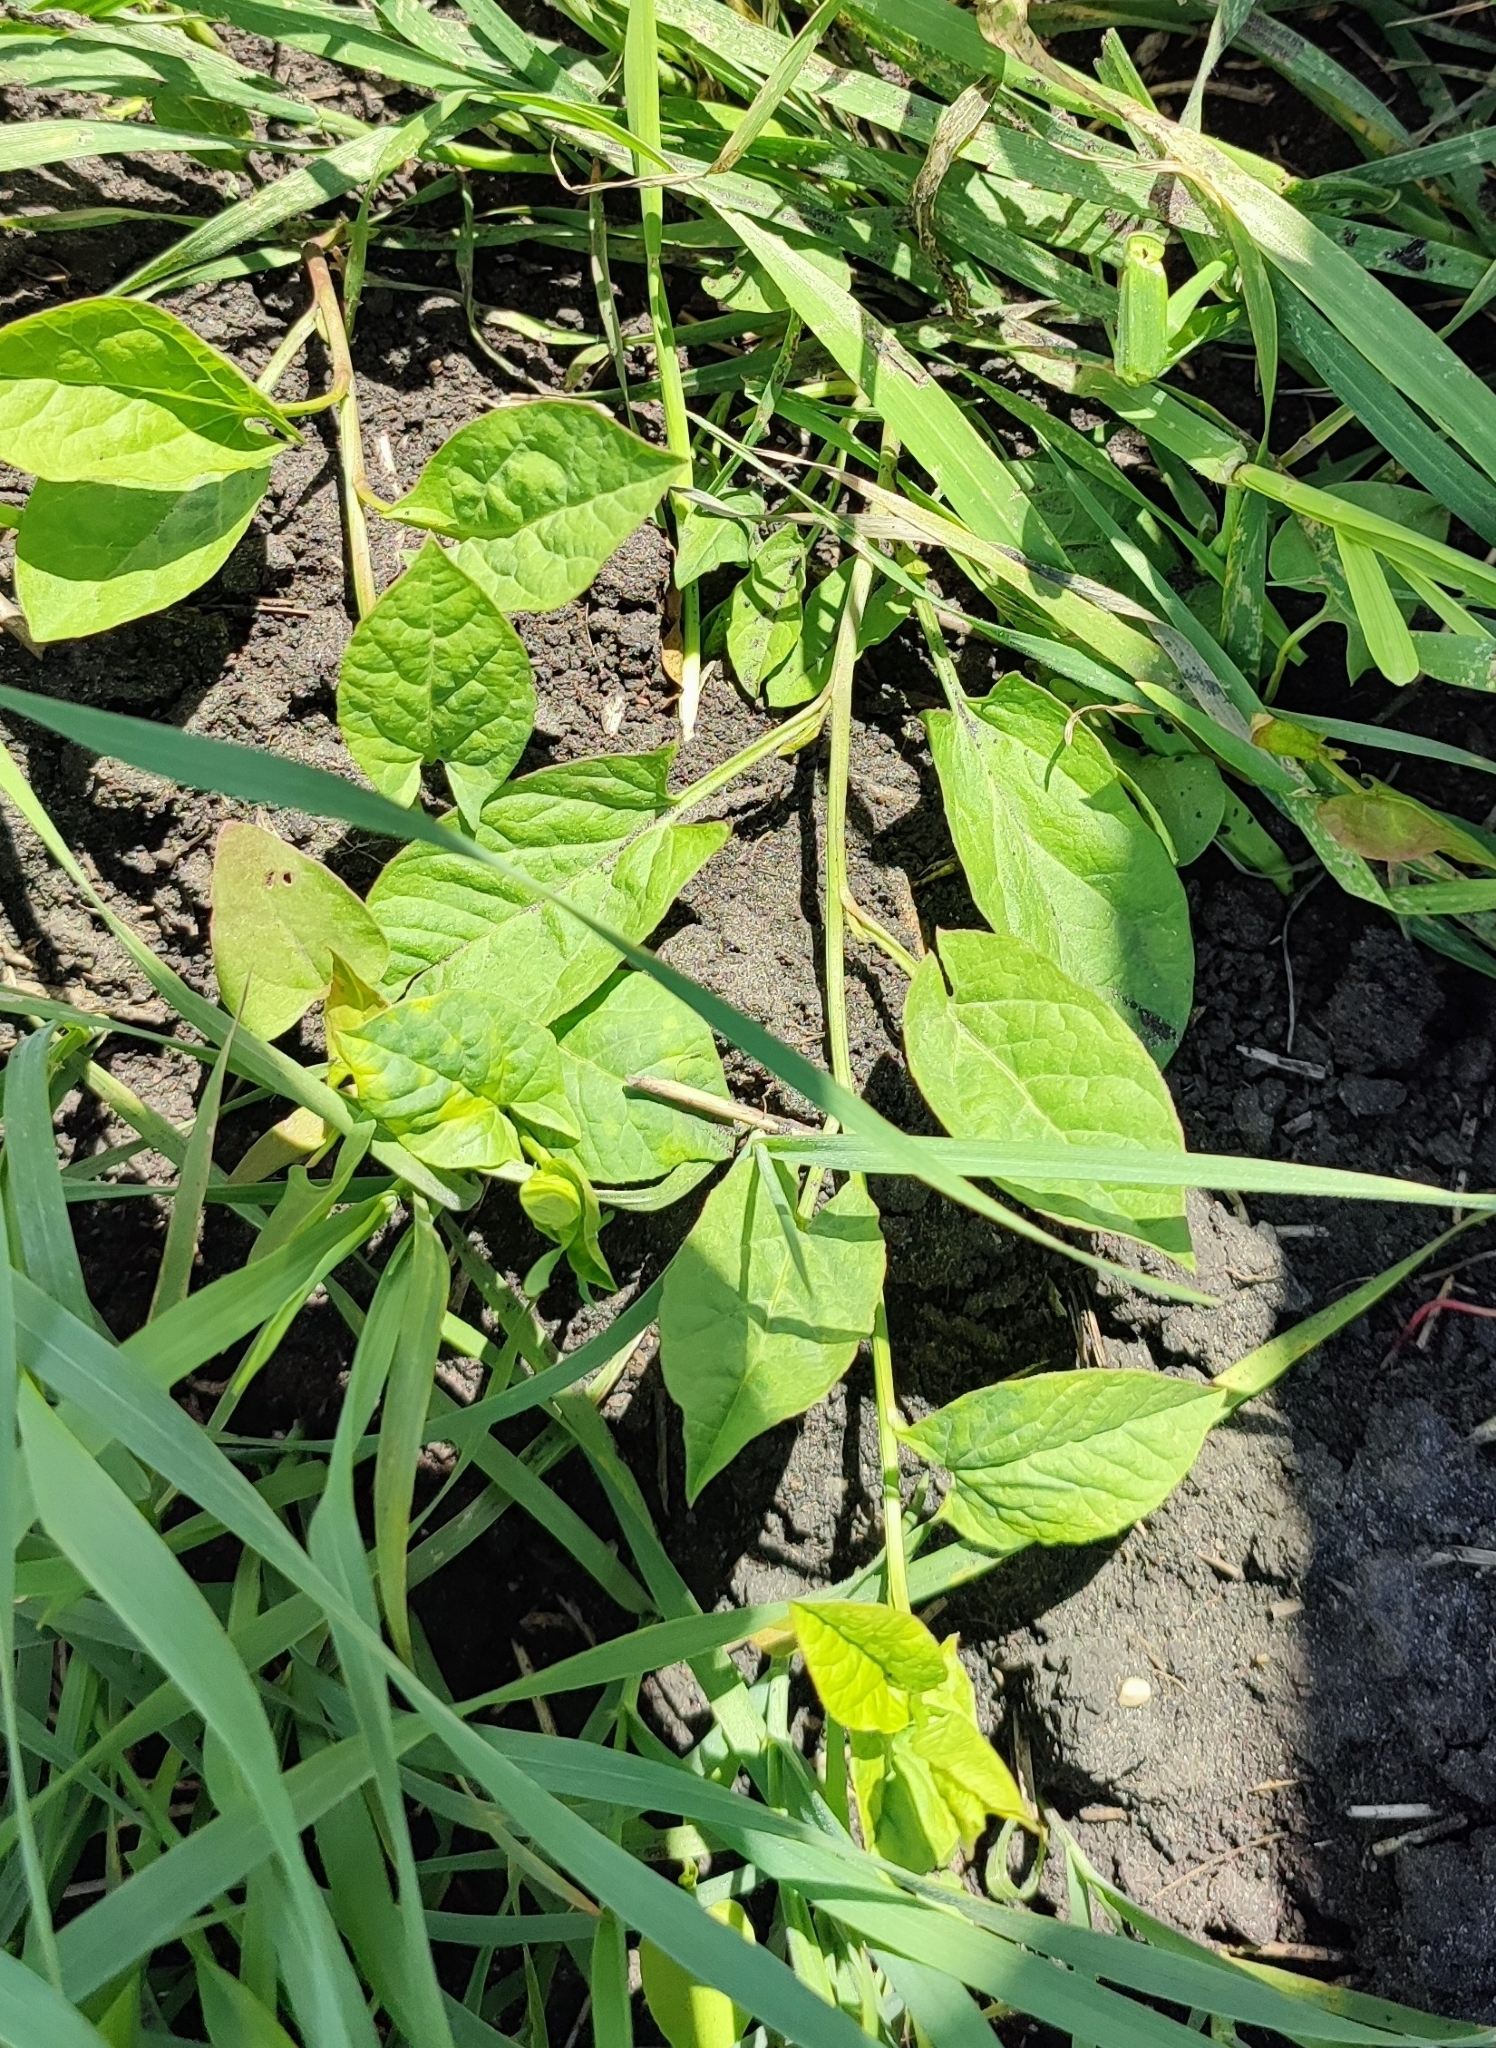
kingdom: Plantae
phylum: Tracheophyta
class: Magnoliopsida
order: Solanales
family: Convolvulaceae
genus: Convolvulus
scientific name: Convolvulus arvensis
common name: Field bindweed
